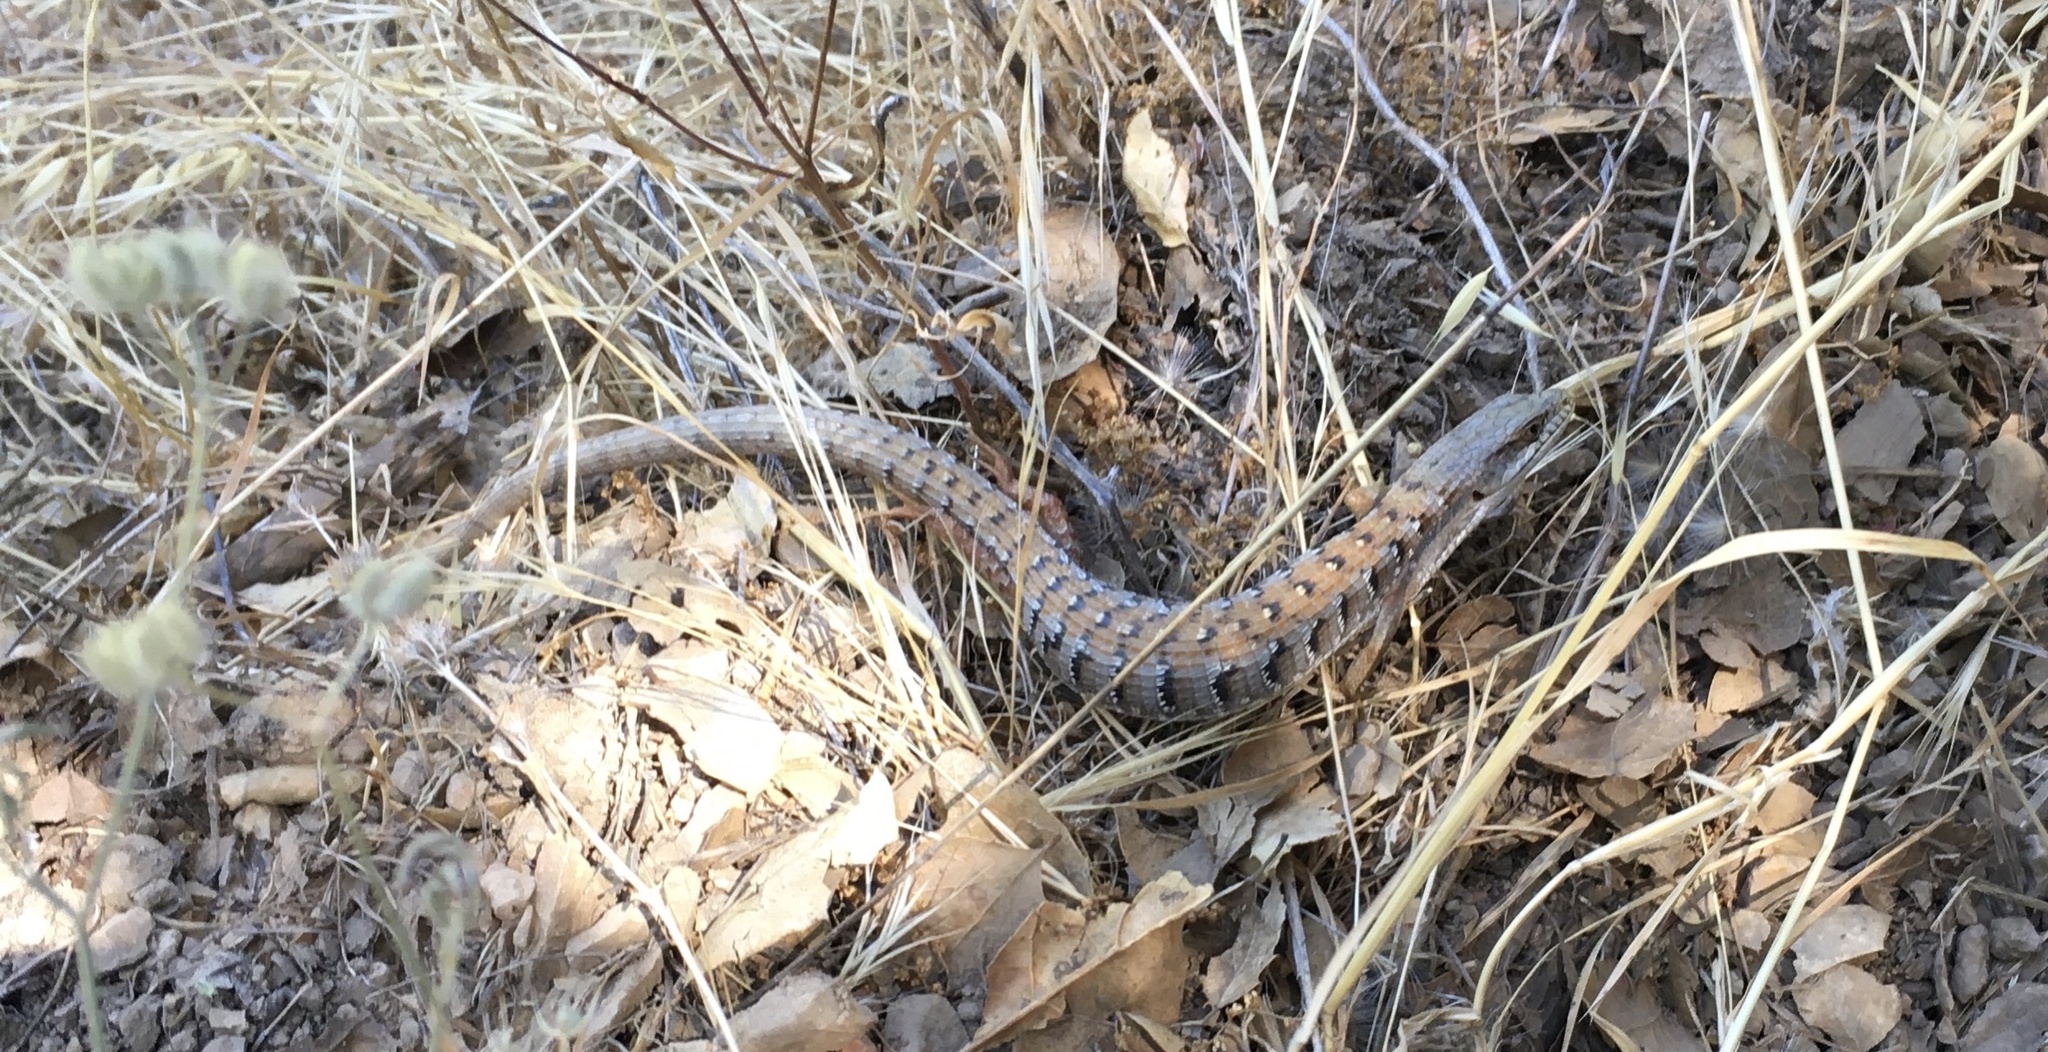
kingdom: Animalia
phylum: Chordata
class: Squamata
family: Anguidae
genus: Elgaria
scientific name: Elgaria multicarinata
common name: Southern alligator lizard
